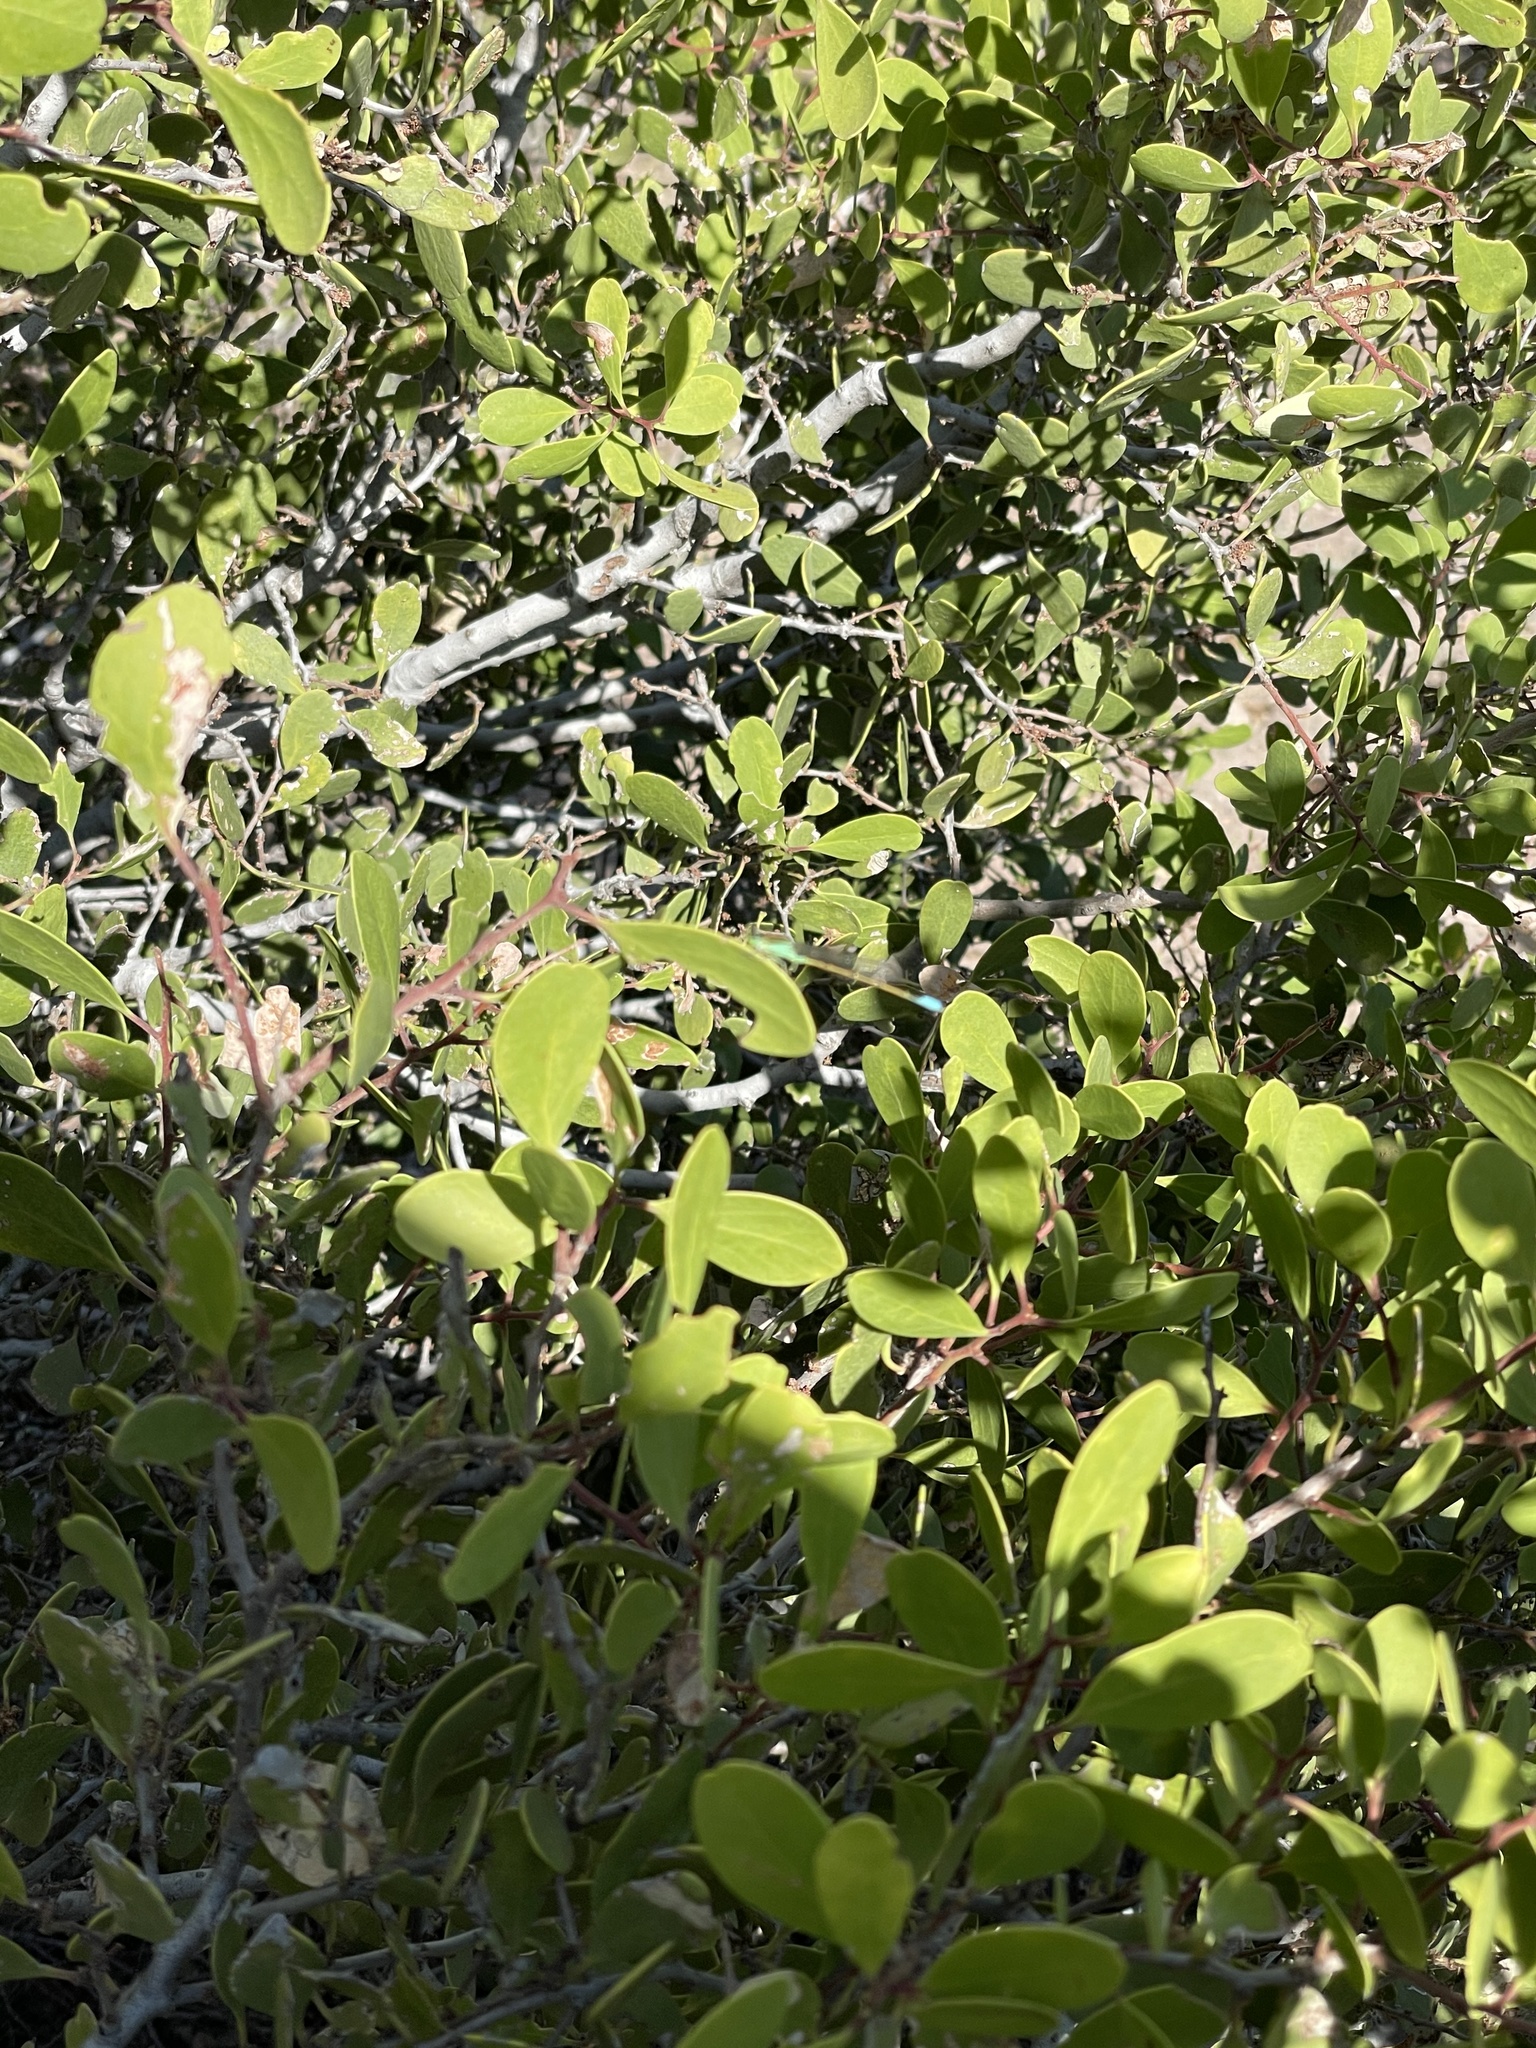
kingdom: Plantae
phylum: Tracheophyta
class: Magnoliopsida
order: Celastrales
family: Celastraceae
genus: Tricerma
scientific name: Tricerma phyllanthoides
